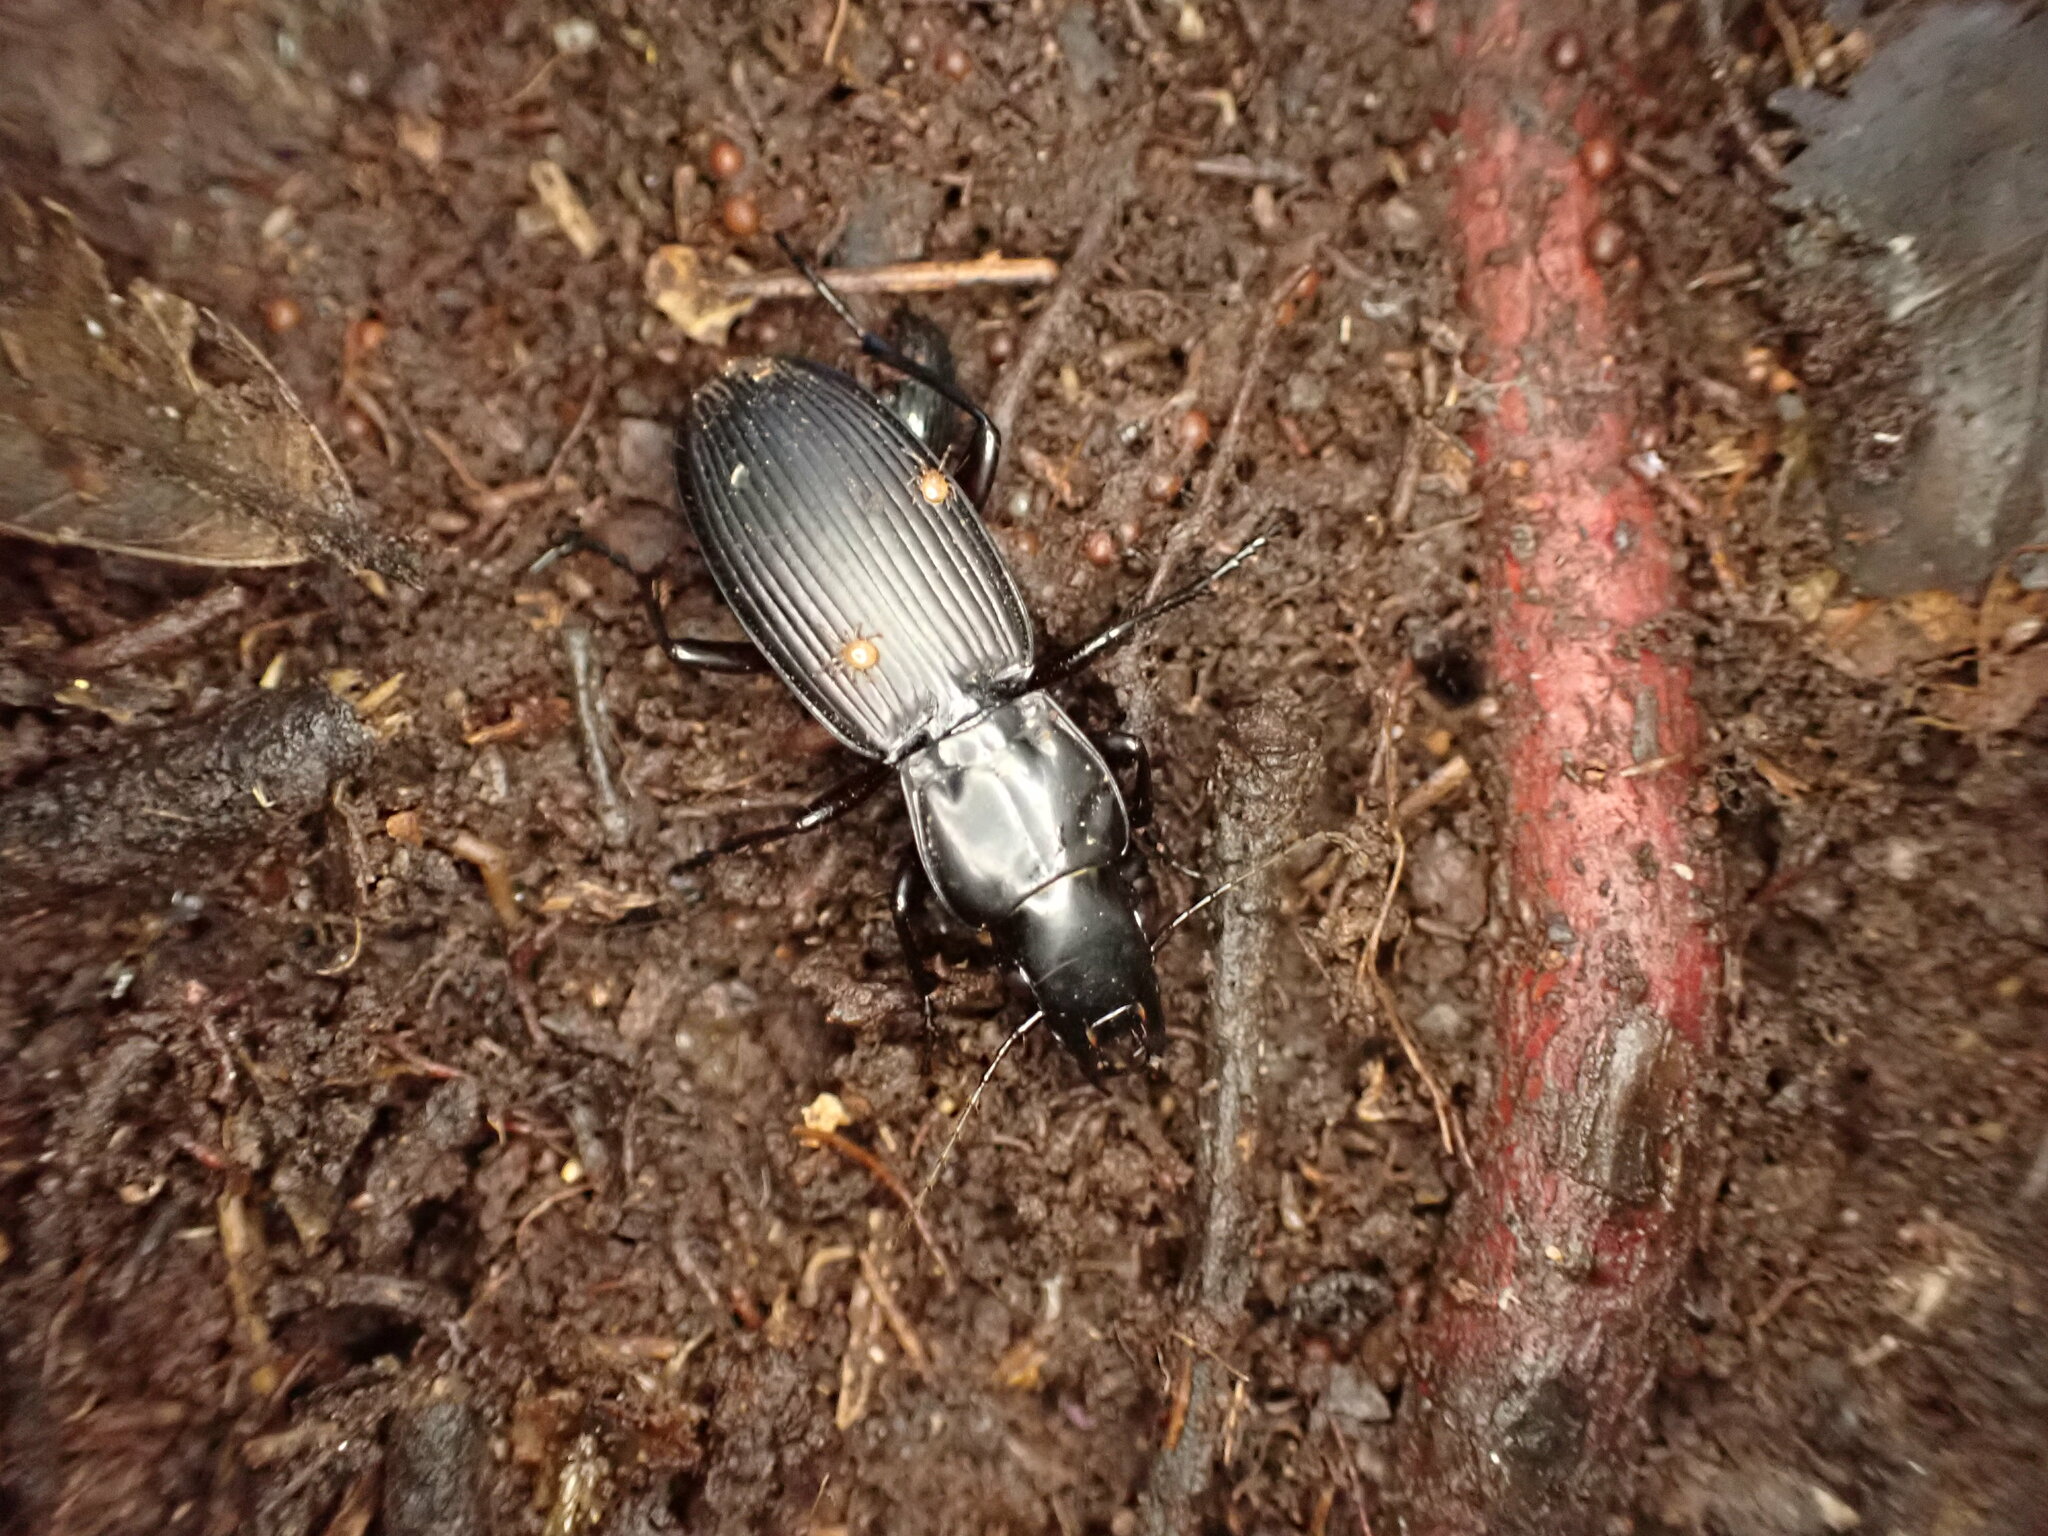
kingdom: Animalia
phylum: Arthropoda
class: Insecta
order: Coleoptera
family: Carabidae
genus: Plocamostethus
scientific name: Plocamostethus planiusculus
